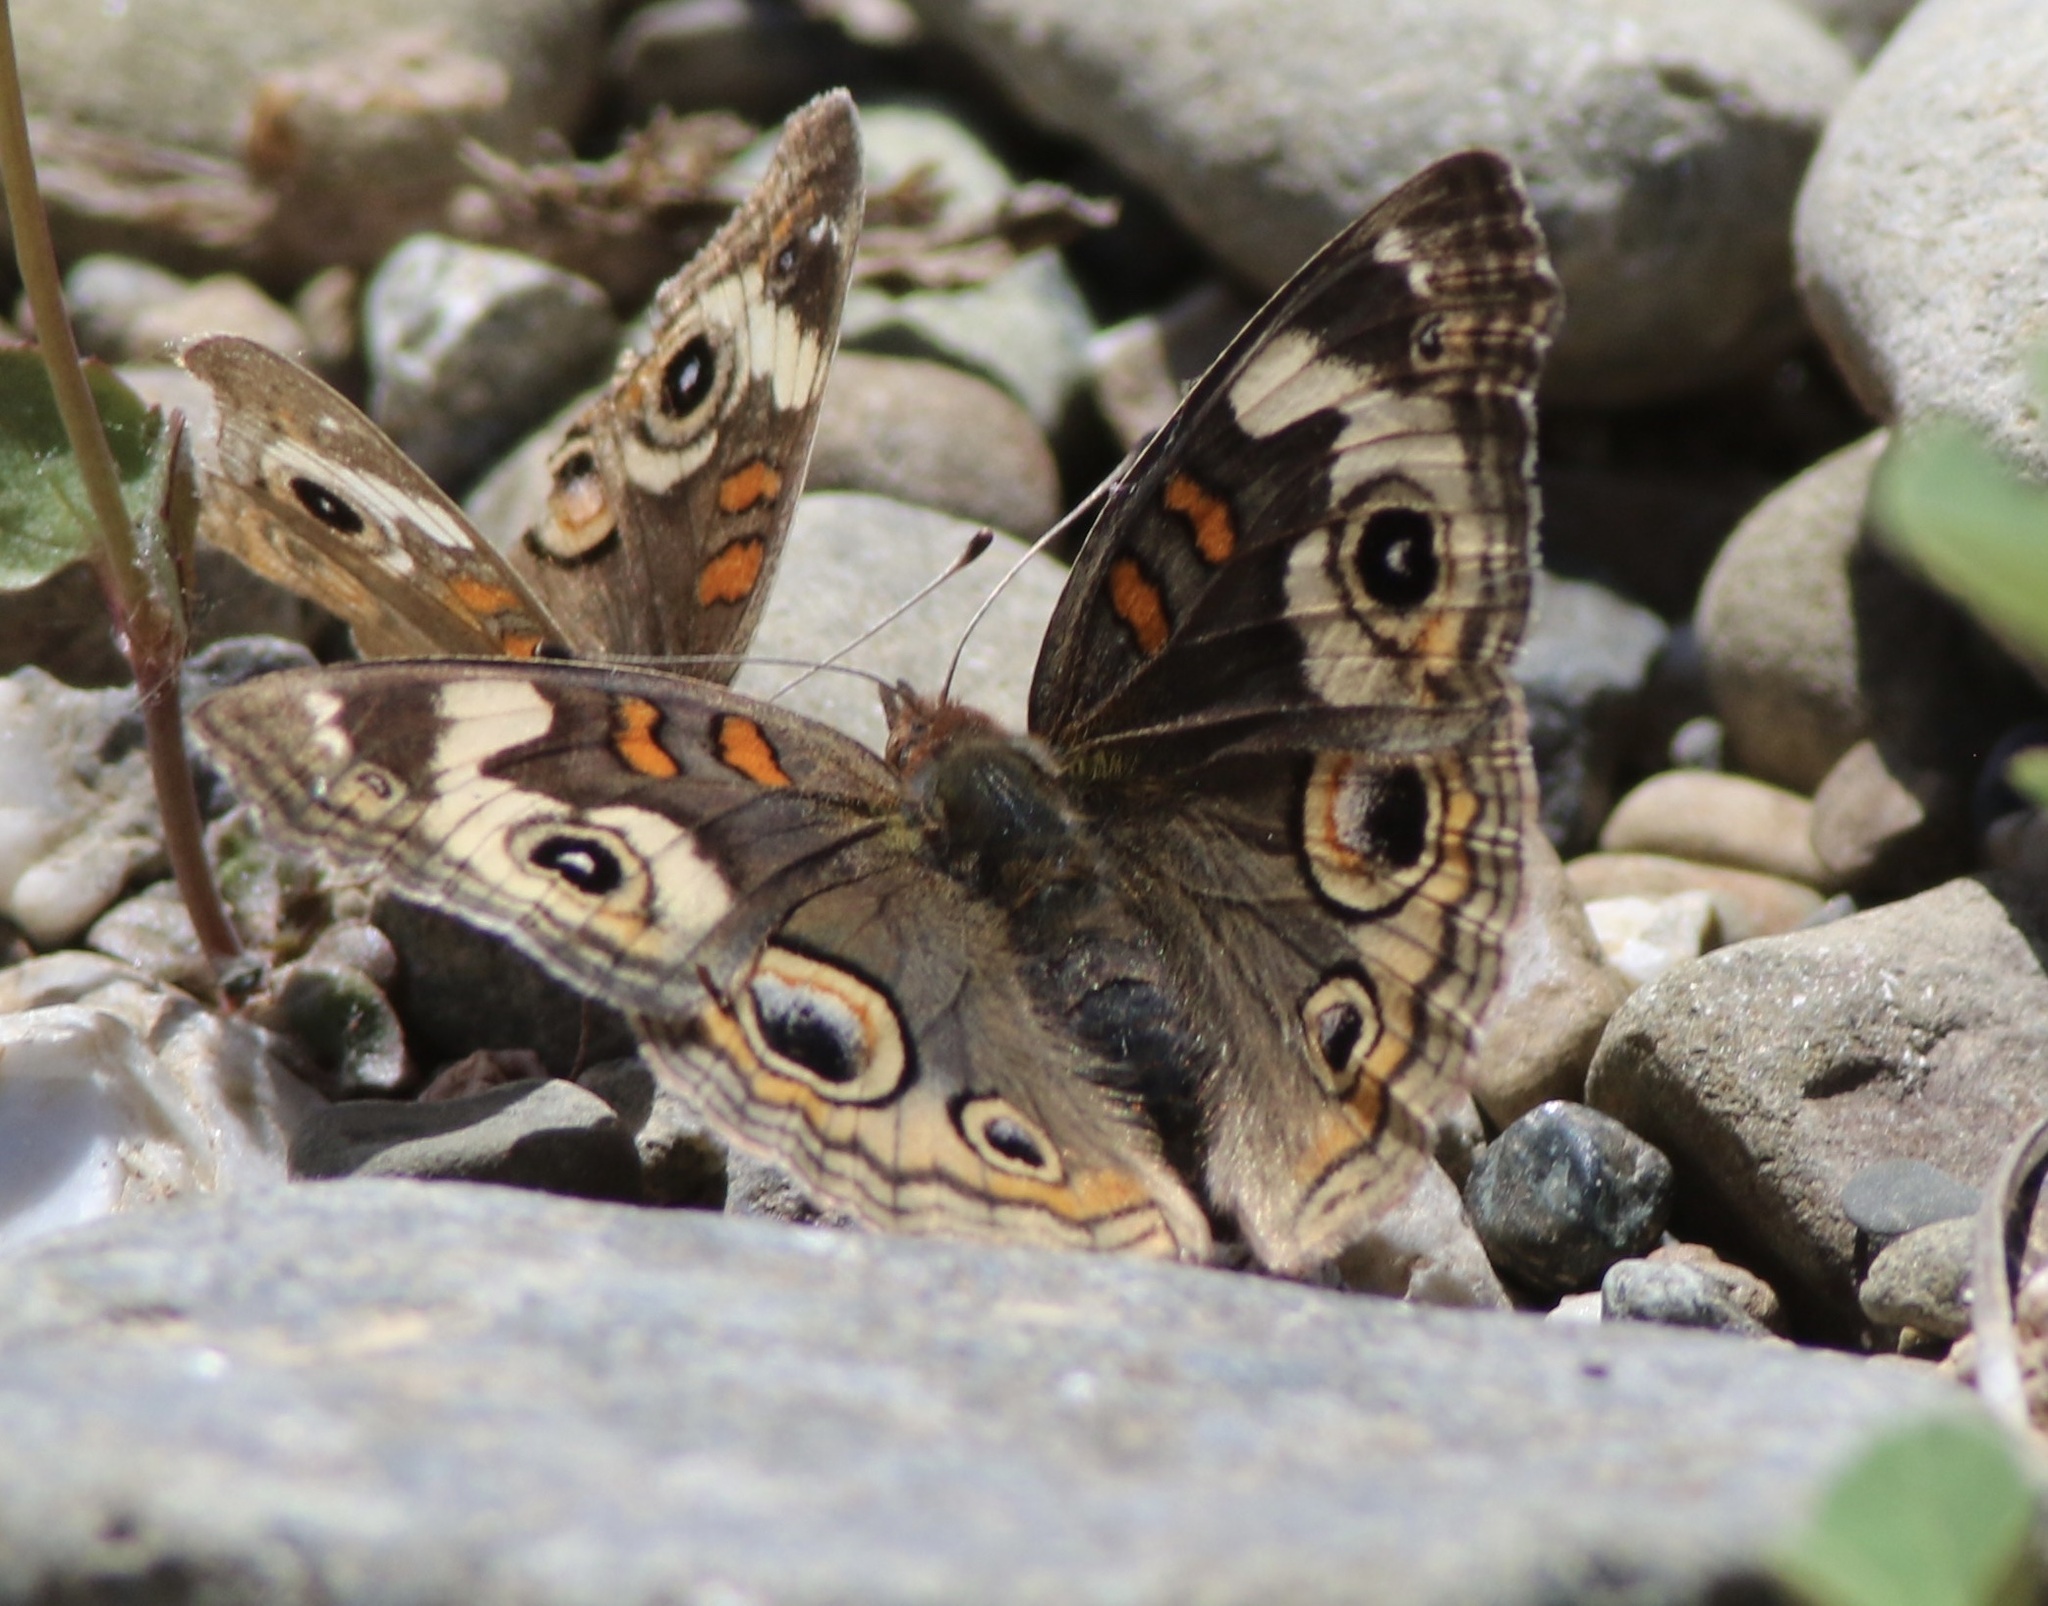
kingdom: Animalia
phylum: Arthropoda
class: Insecta
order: Lepidoptera
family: Nymphalidae
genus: Junonia
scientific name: Junonia grisea
